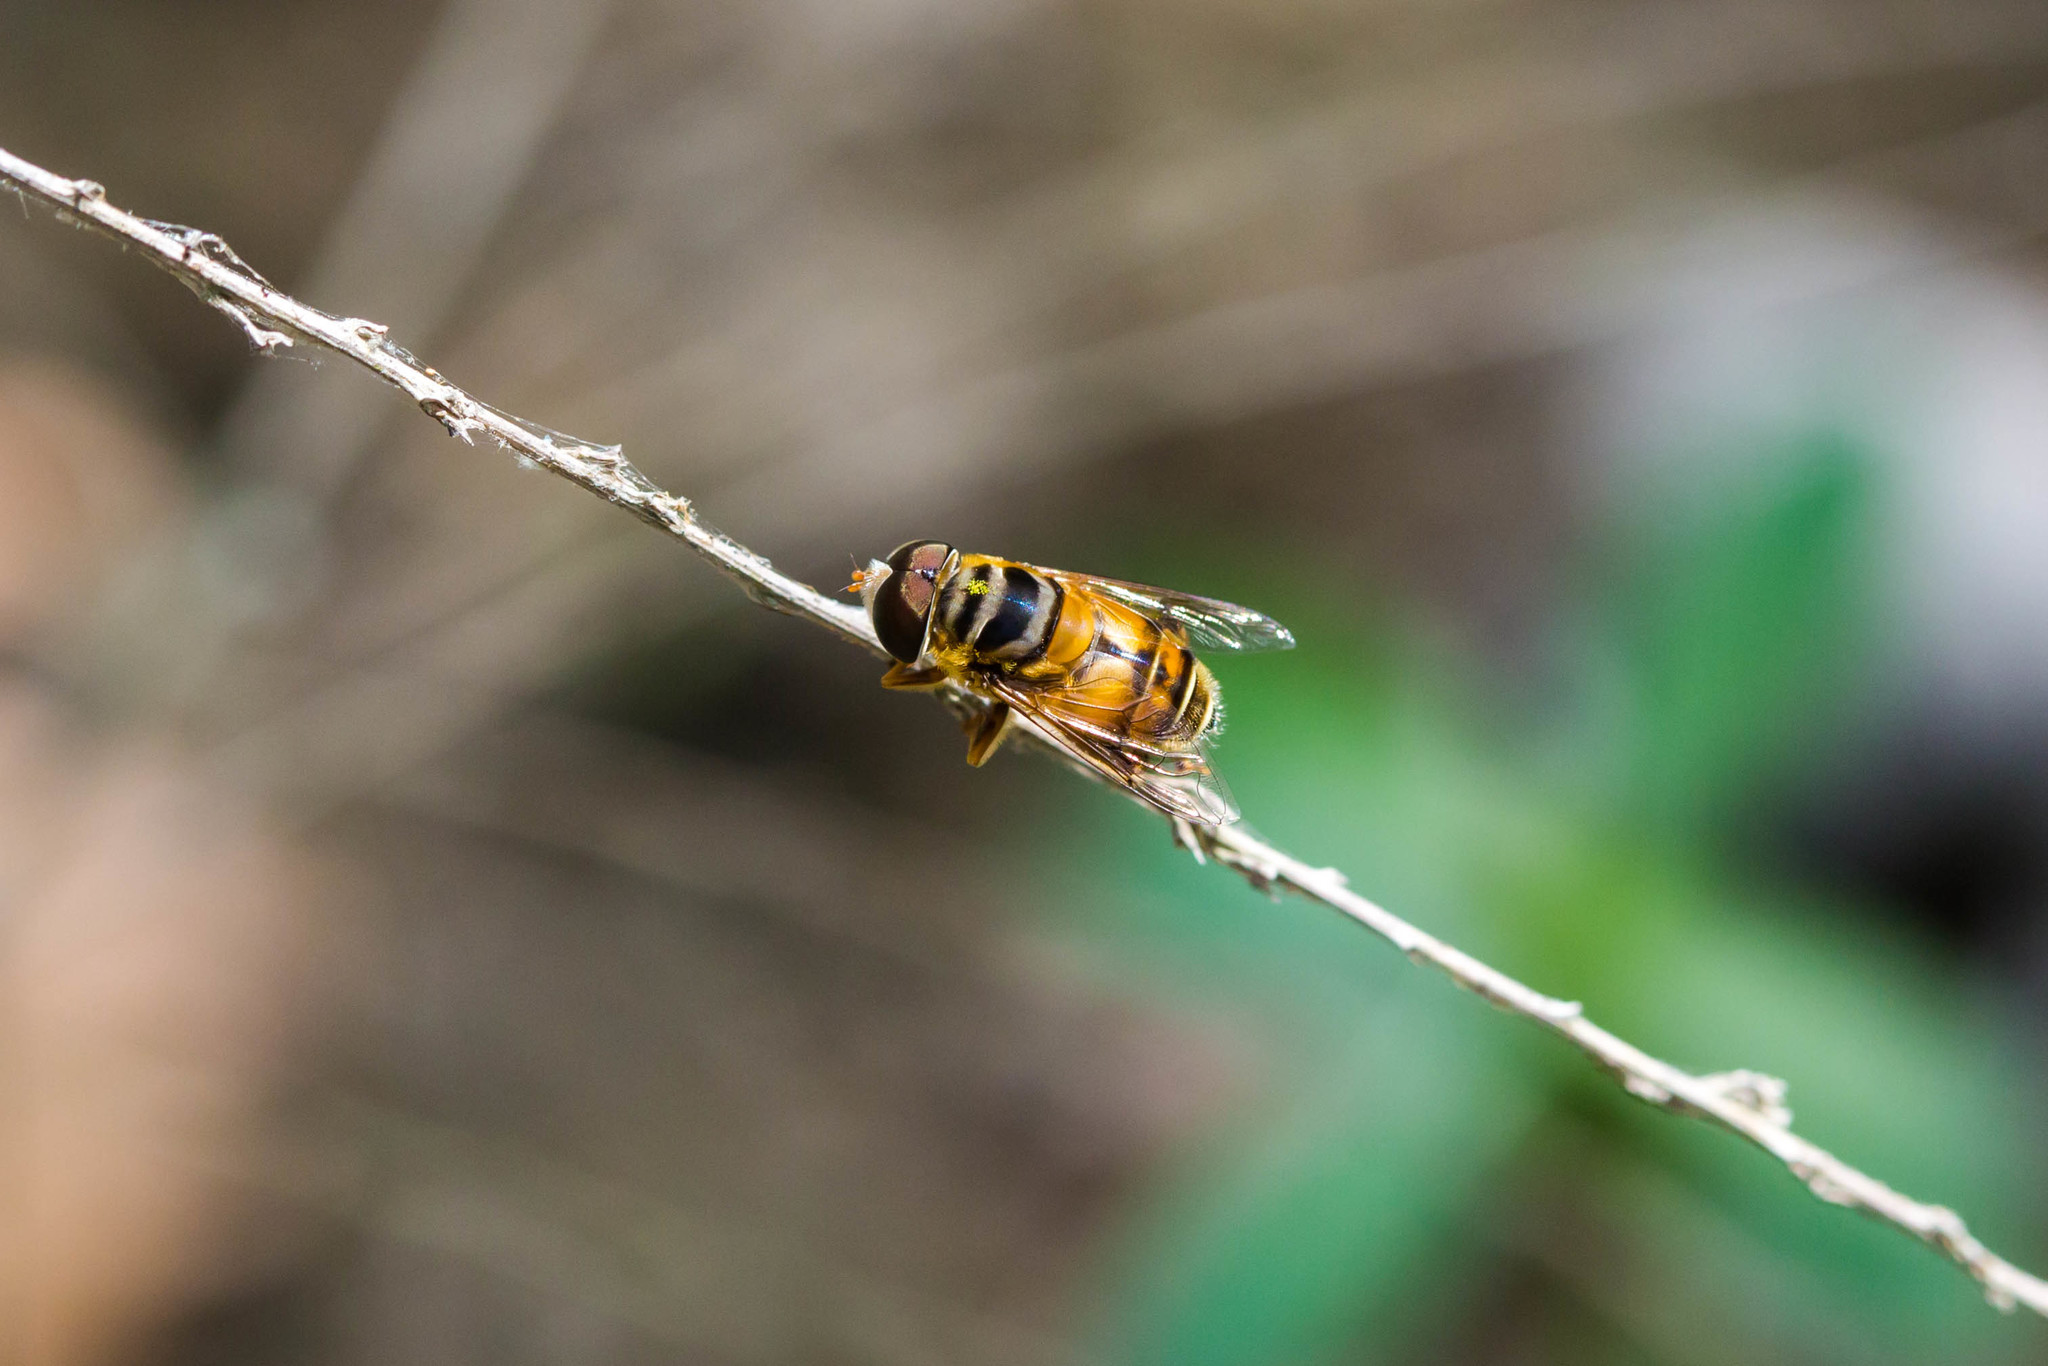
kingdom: Animalia
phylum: Arthropoda
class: Insecta
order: Diptera
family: Syrphidae
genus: Palpada
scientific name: Palpada vinetorum
